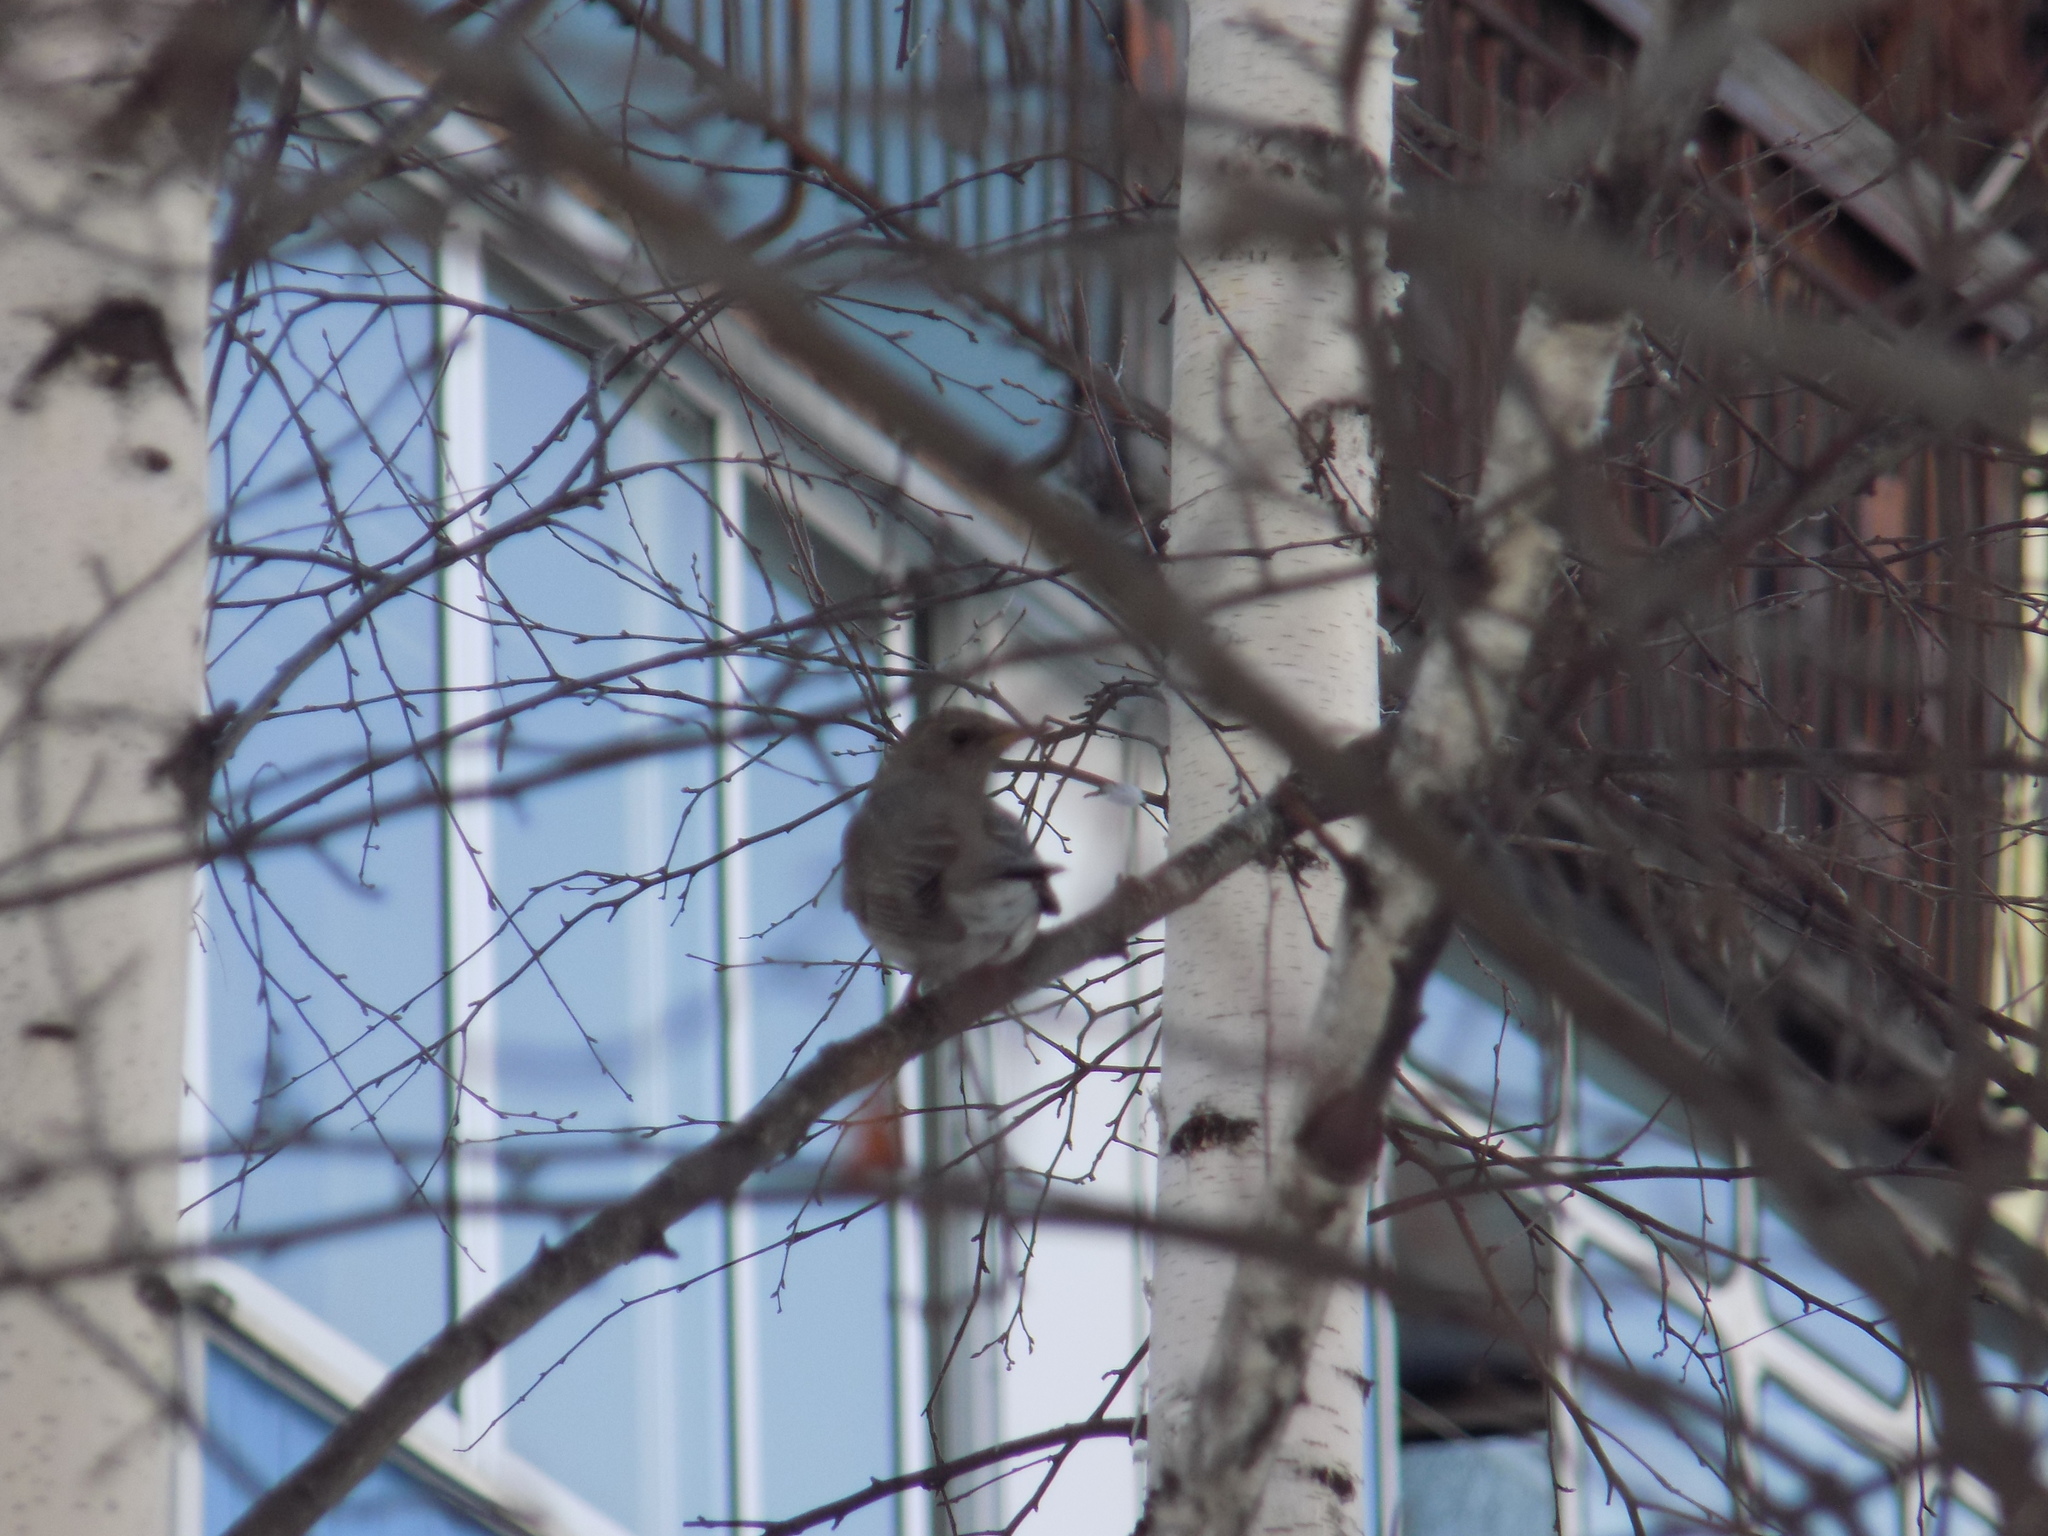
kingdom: Animalia
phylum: Chordata
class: Aves
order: Passeriformes
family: Turdidae
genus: Turdus
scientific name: Turdus atrogularis
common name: Black-throated thrush
